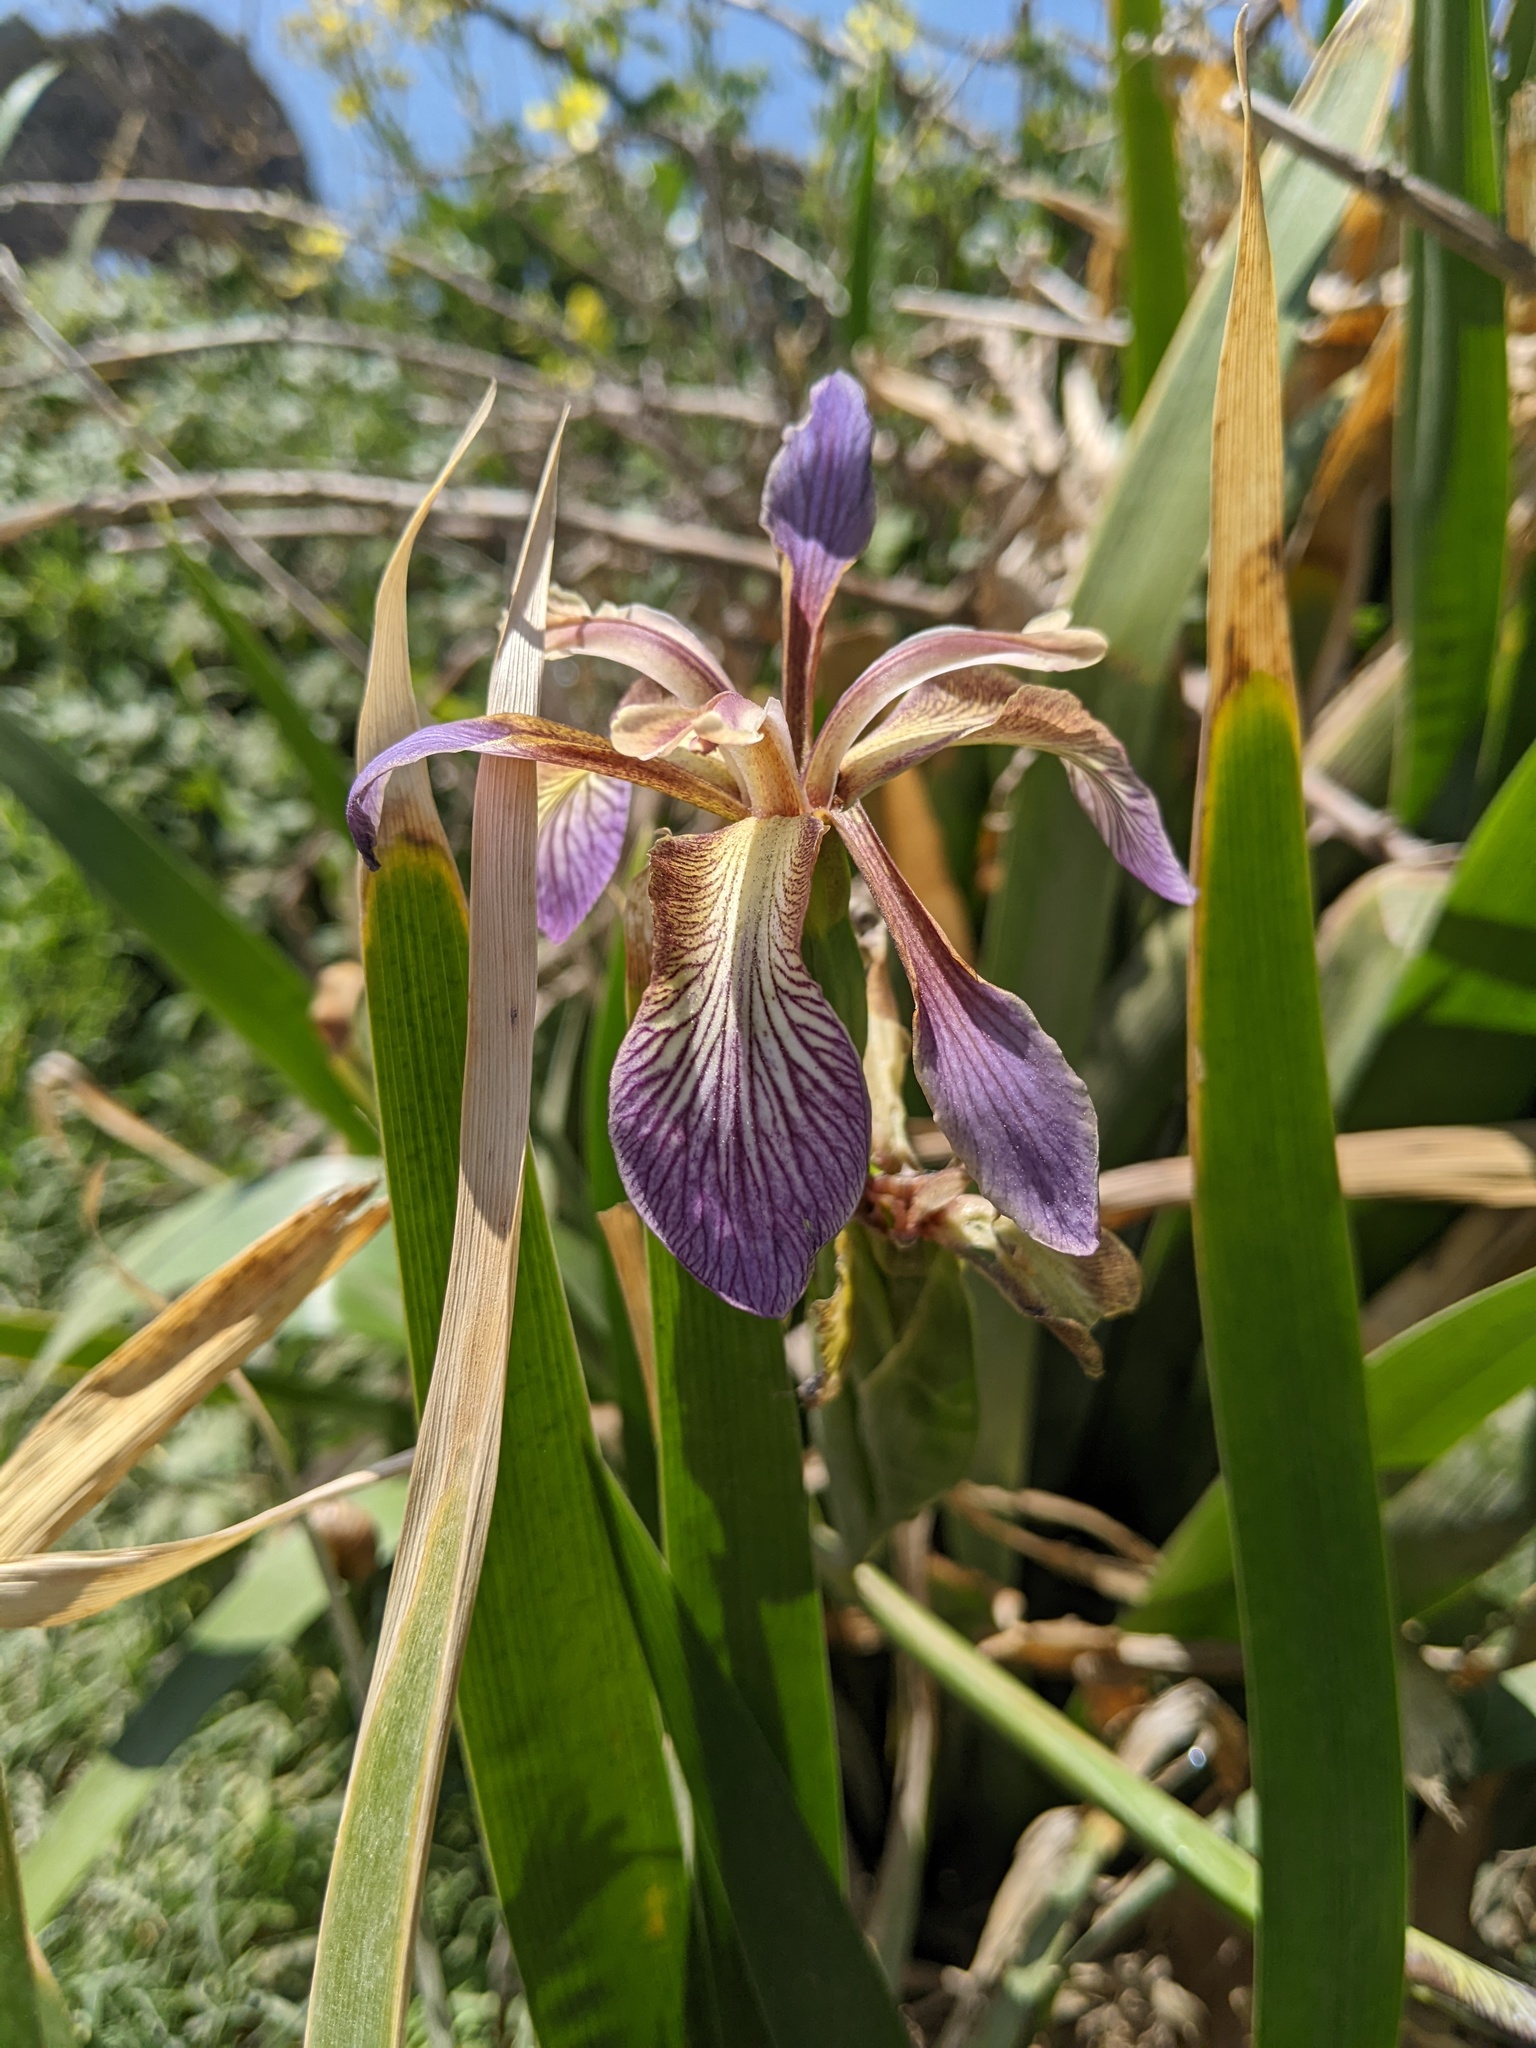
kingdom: Plantae
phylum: Tracheophyta
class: Liliopsida
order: Asparagales
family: Iridaceae
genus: Iris
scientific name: Iris foetidissima
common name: Stinking iris
